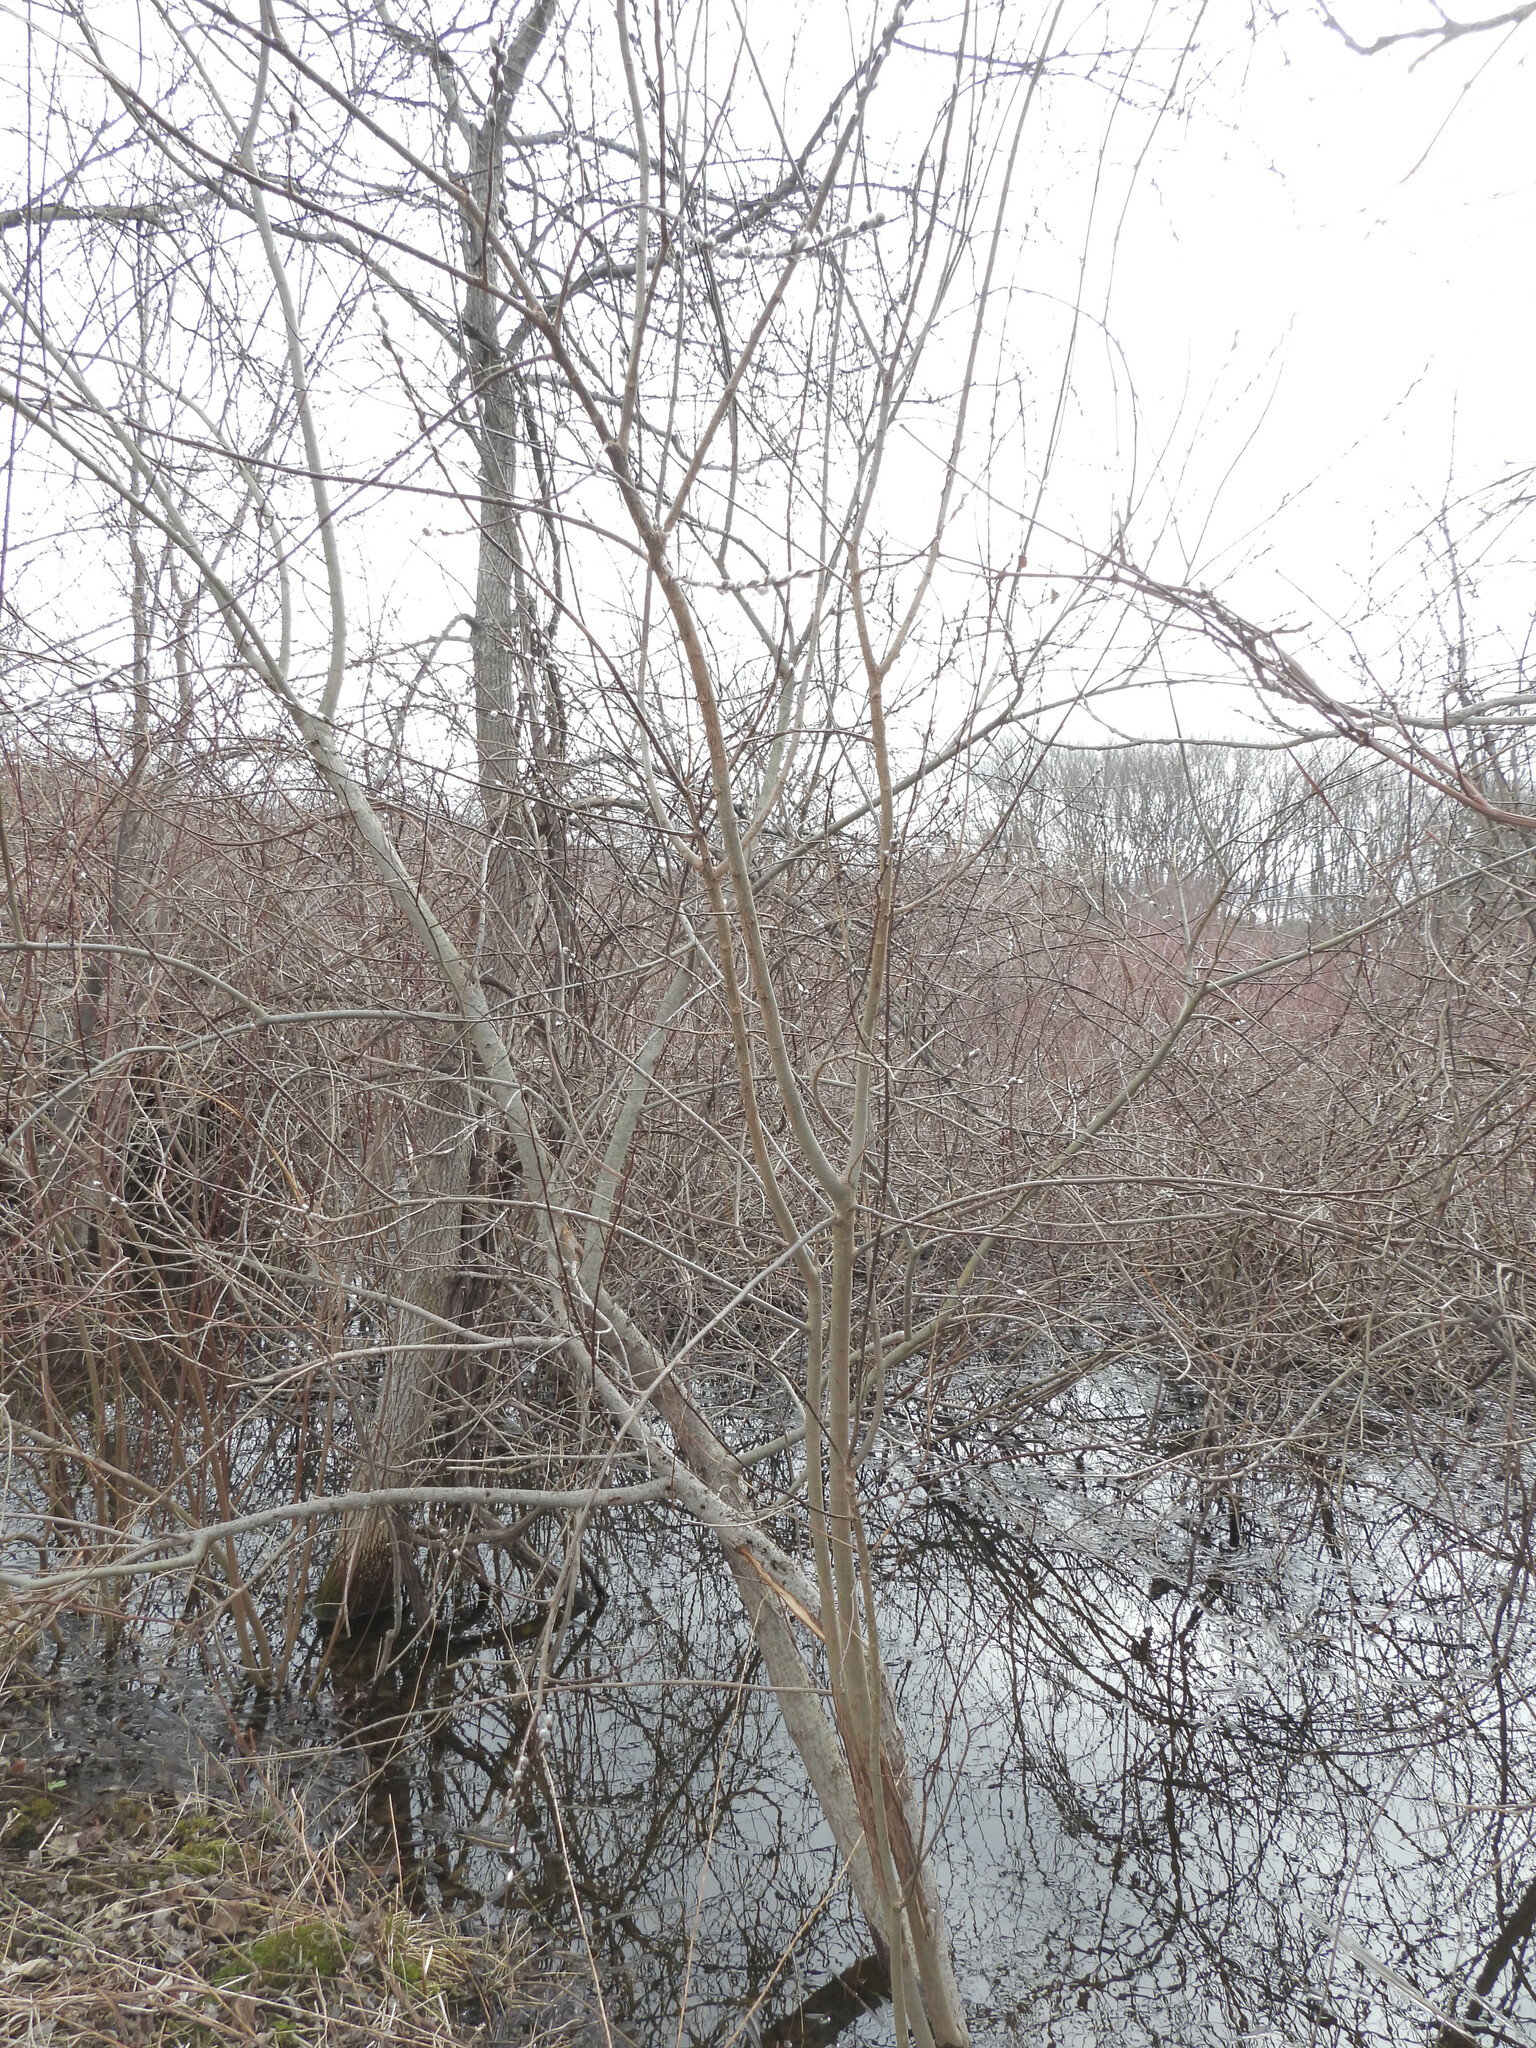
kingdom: Plantae
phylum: Tracheophyta
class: Magnoliopsida
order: Malpighiales
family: Salicaceae
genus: Salix
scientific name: Salix discolor
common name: Glaucous willow
